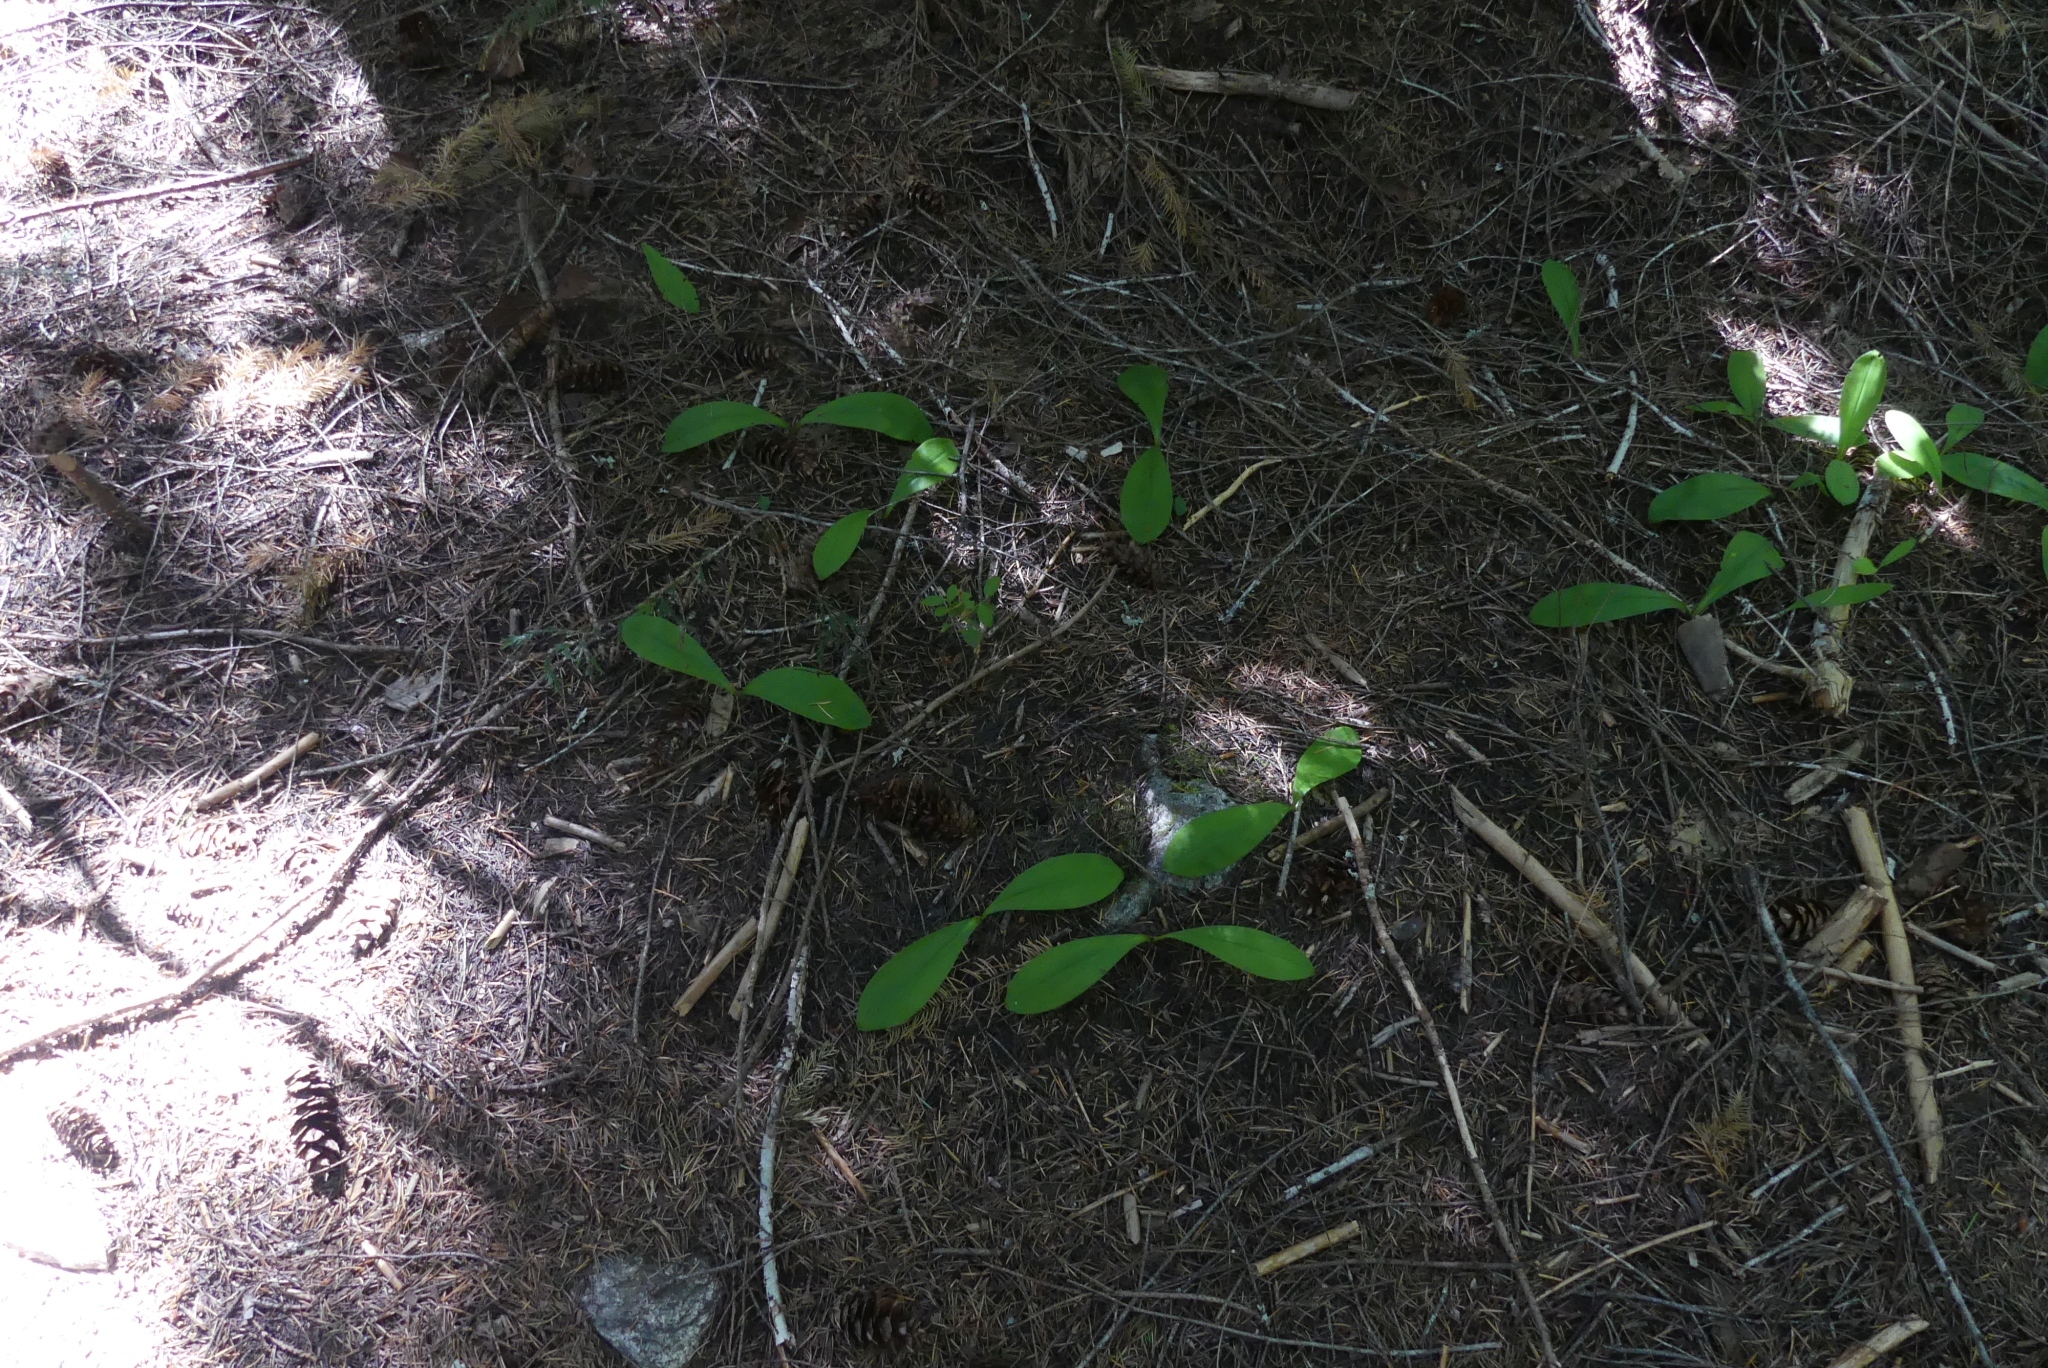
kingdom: Plantae
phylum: Tracheophyta
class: Liliopsida
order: Liliales
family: Liliaceae
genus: Clintonia
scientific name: Clintonia uniflora
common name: Queen's cup
